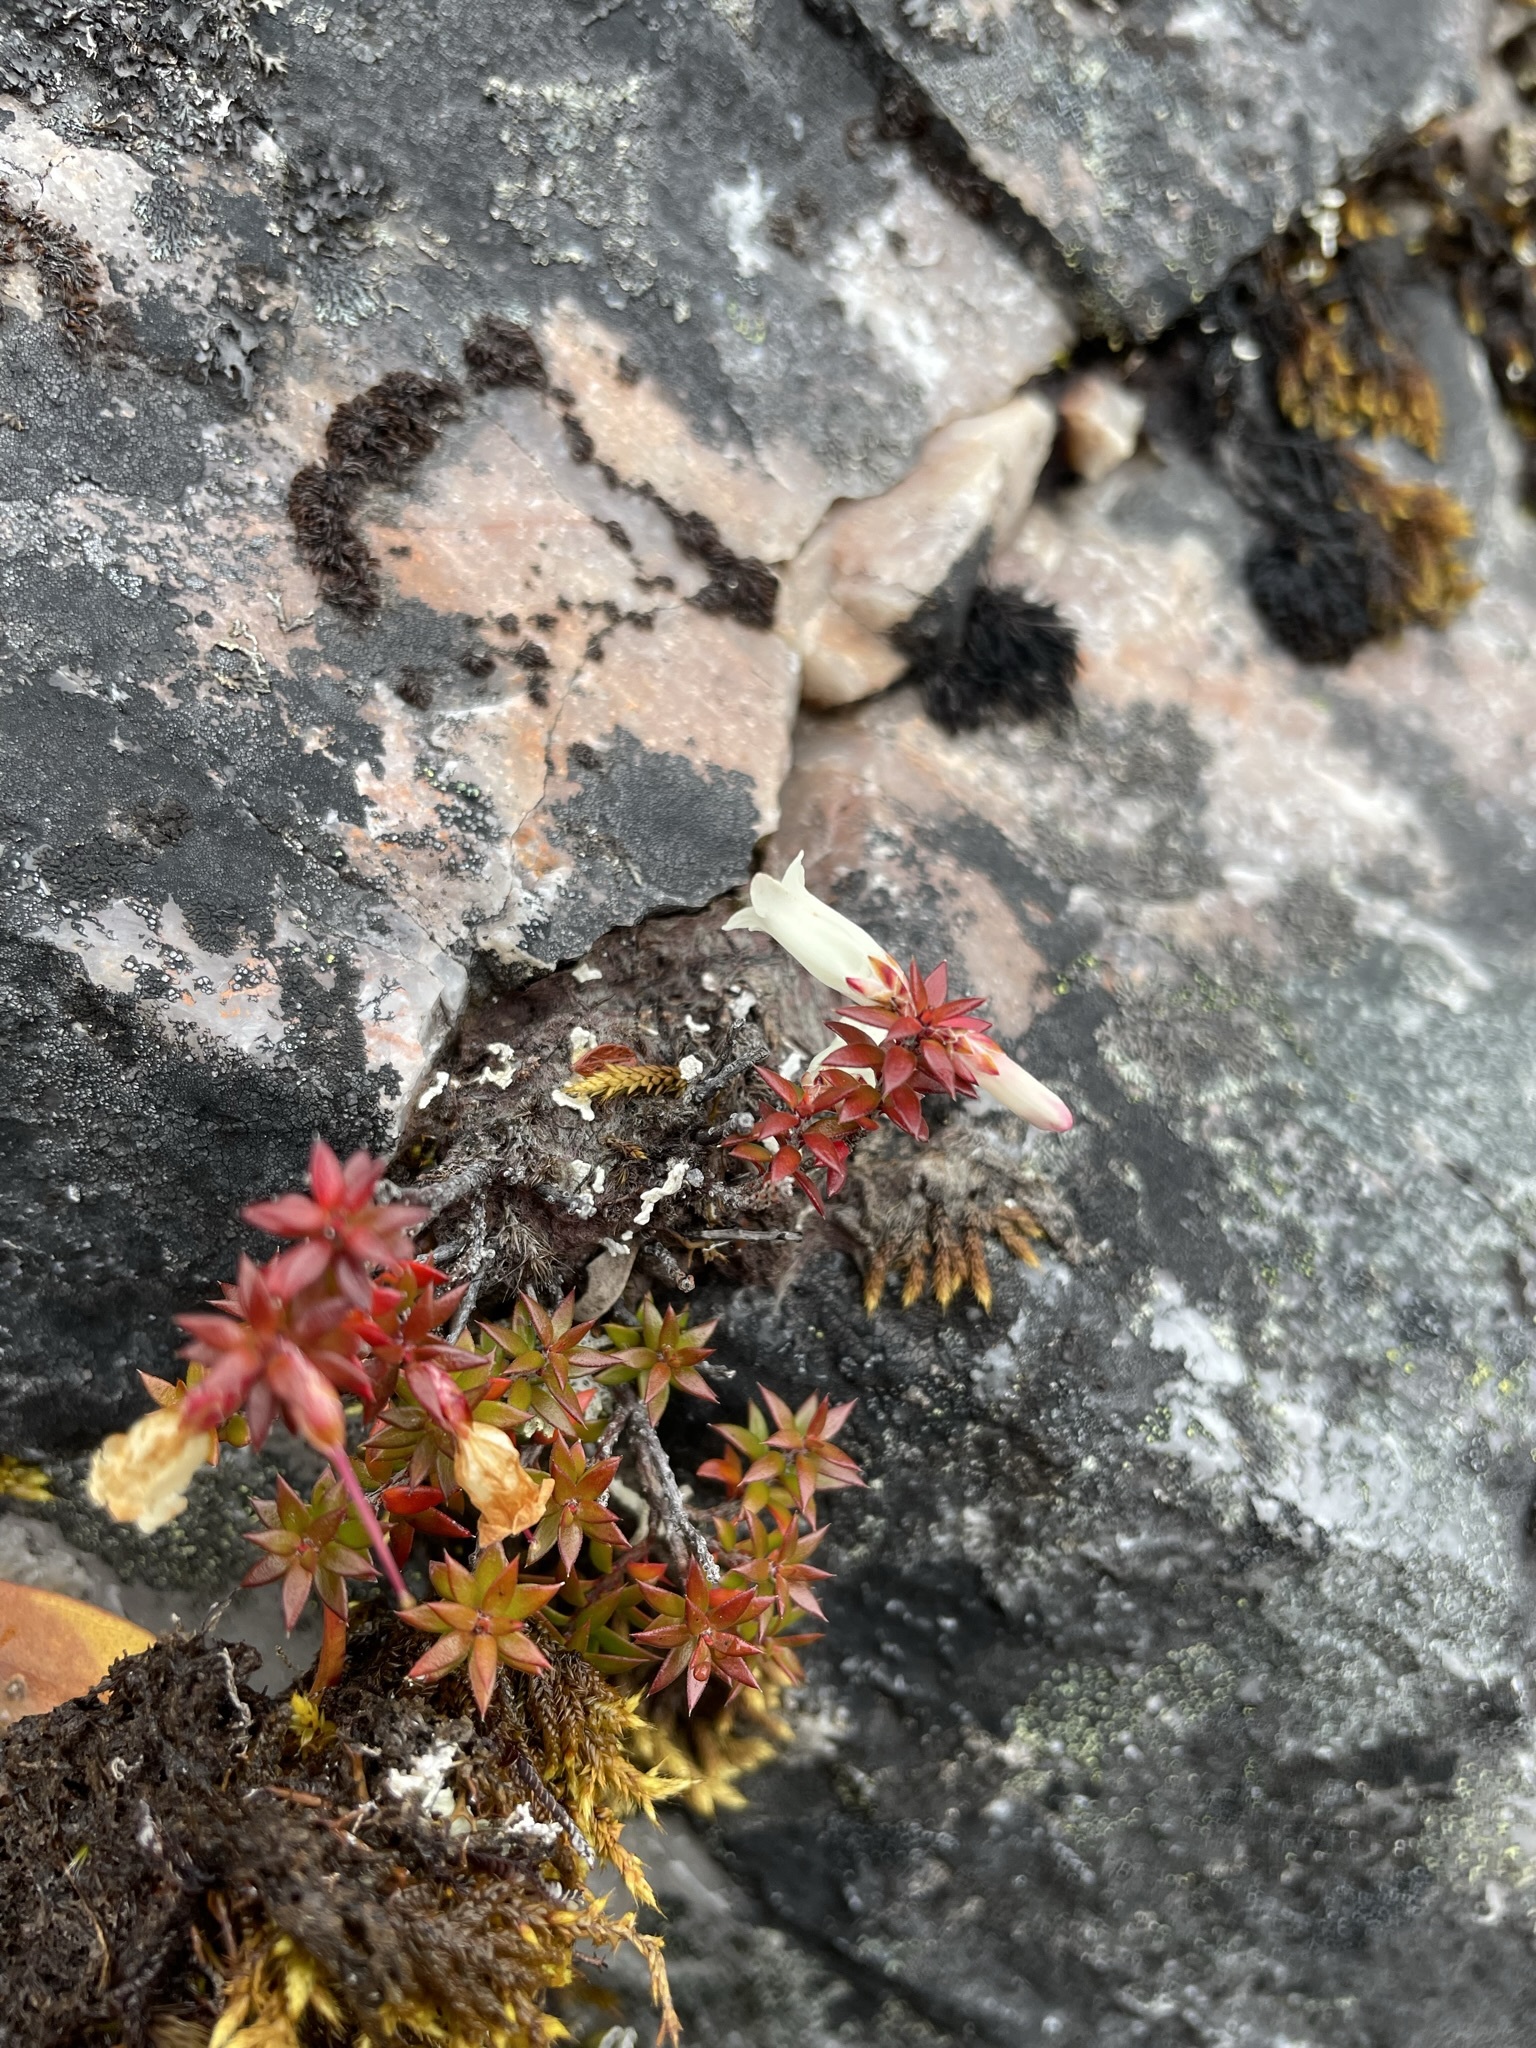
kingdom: Plantae
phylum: Tracheophyta
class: Magnoliopsida
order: Ericales
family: Ericaceae
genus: Epacris
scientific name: Epacris impressa
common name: Common-heath
